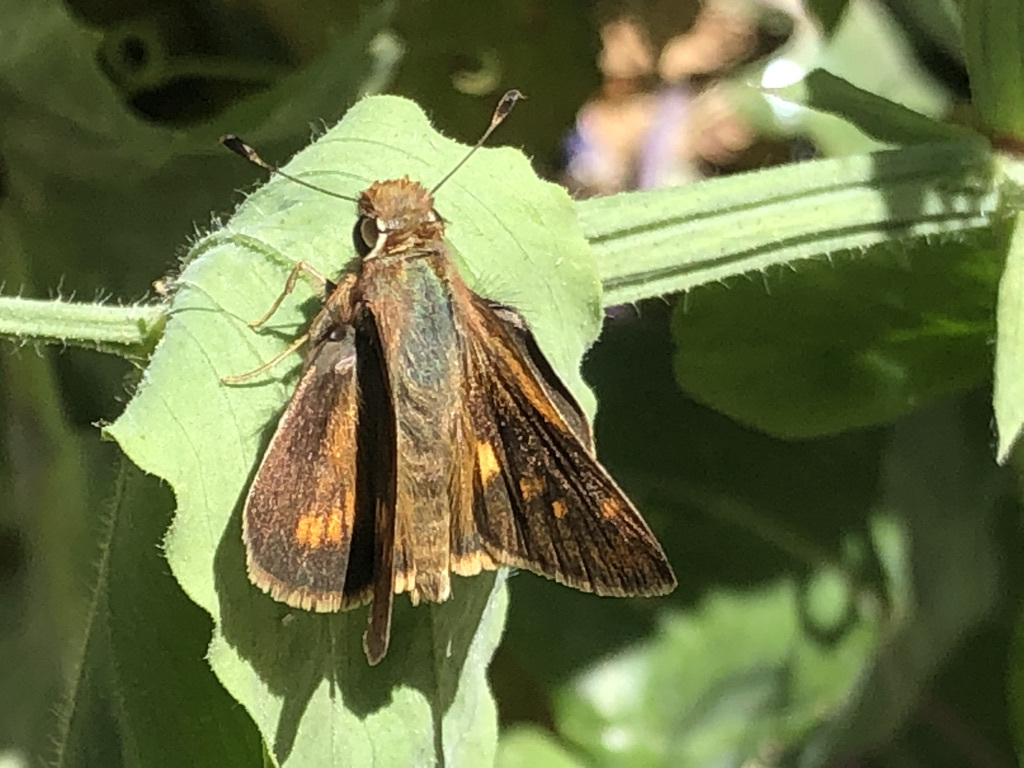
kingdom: Animalia
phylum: Arthropoda
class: Insecta
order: Lepidoptera
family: Hesperiidae
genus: Lon
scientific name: Lon melane
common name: Umber skipper
